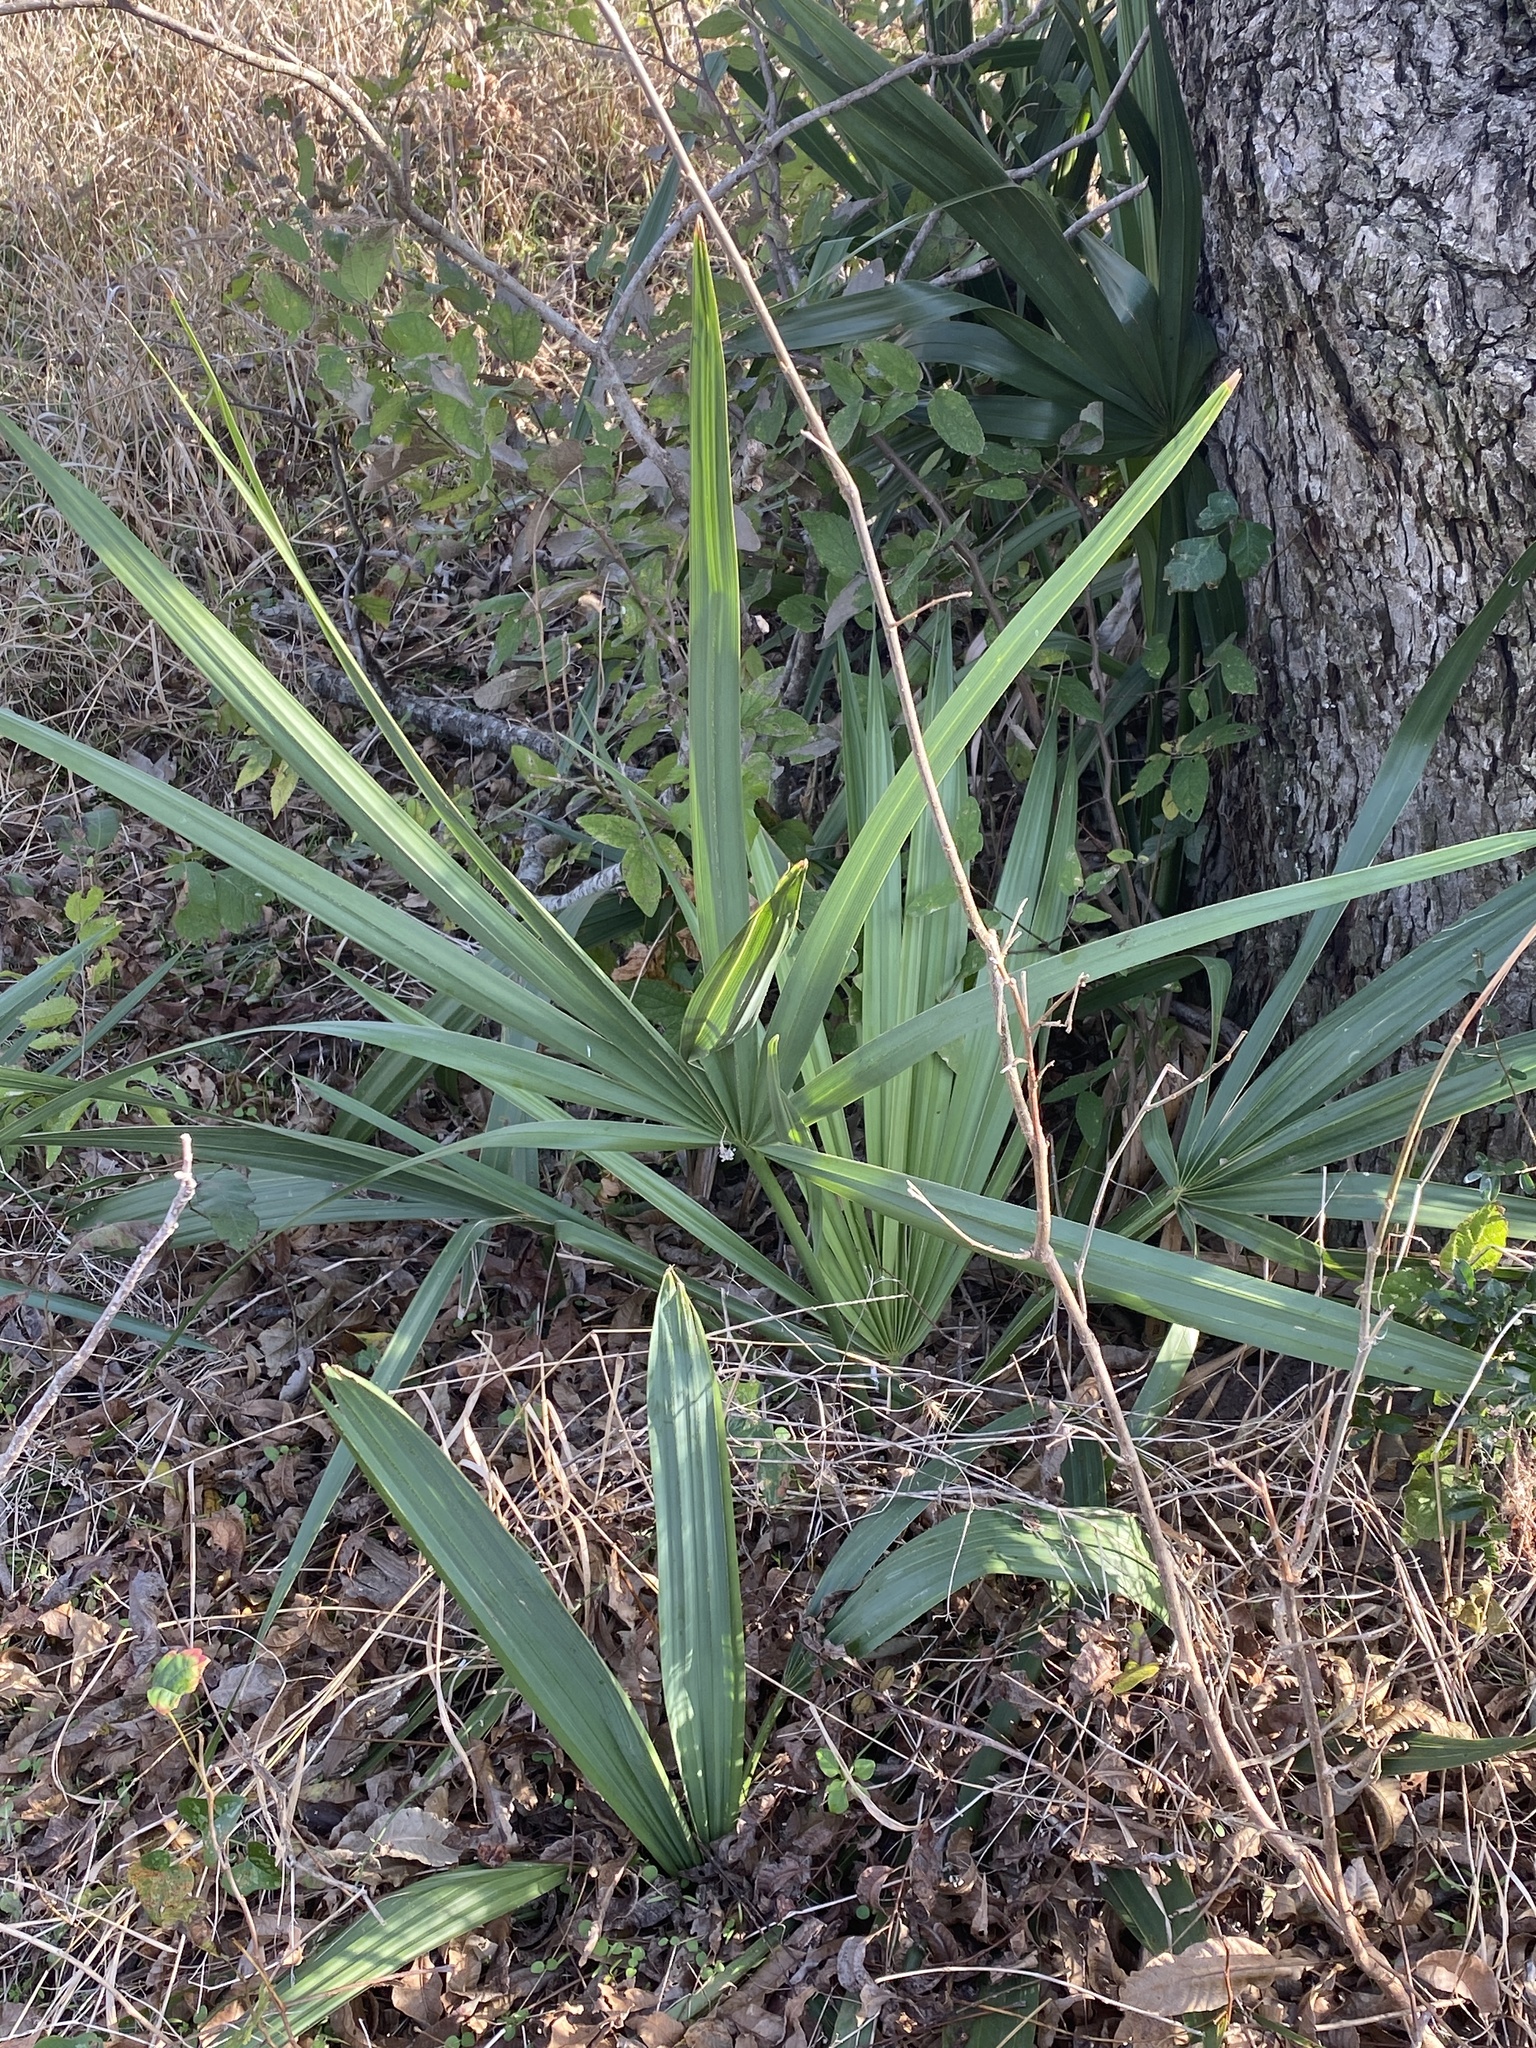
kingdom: Plantae
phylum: Tracheophyta
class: Liliopsida
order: Arecales
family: Arecaceae
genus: Sabal
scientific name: Sabal minor
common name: Dwarf palmetto
